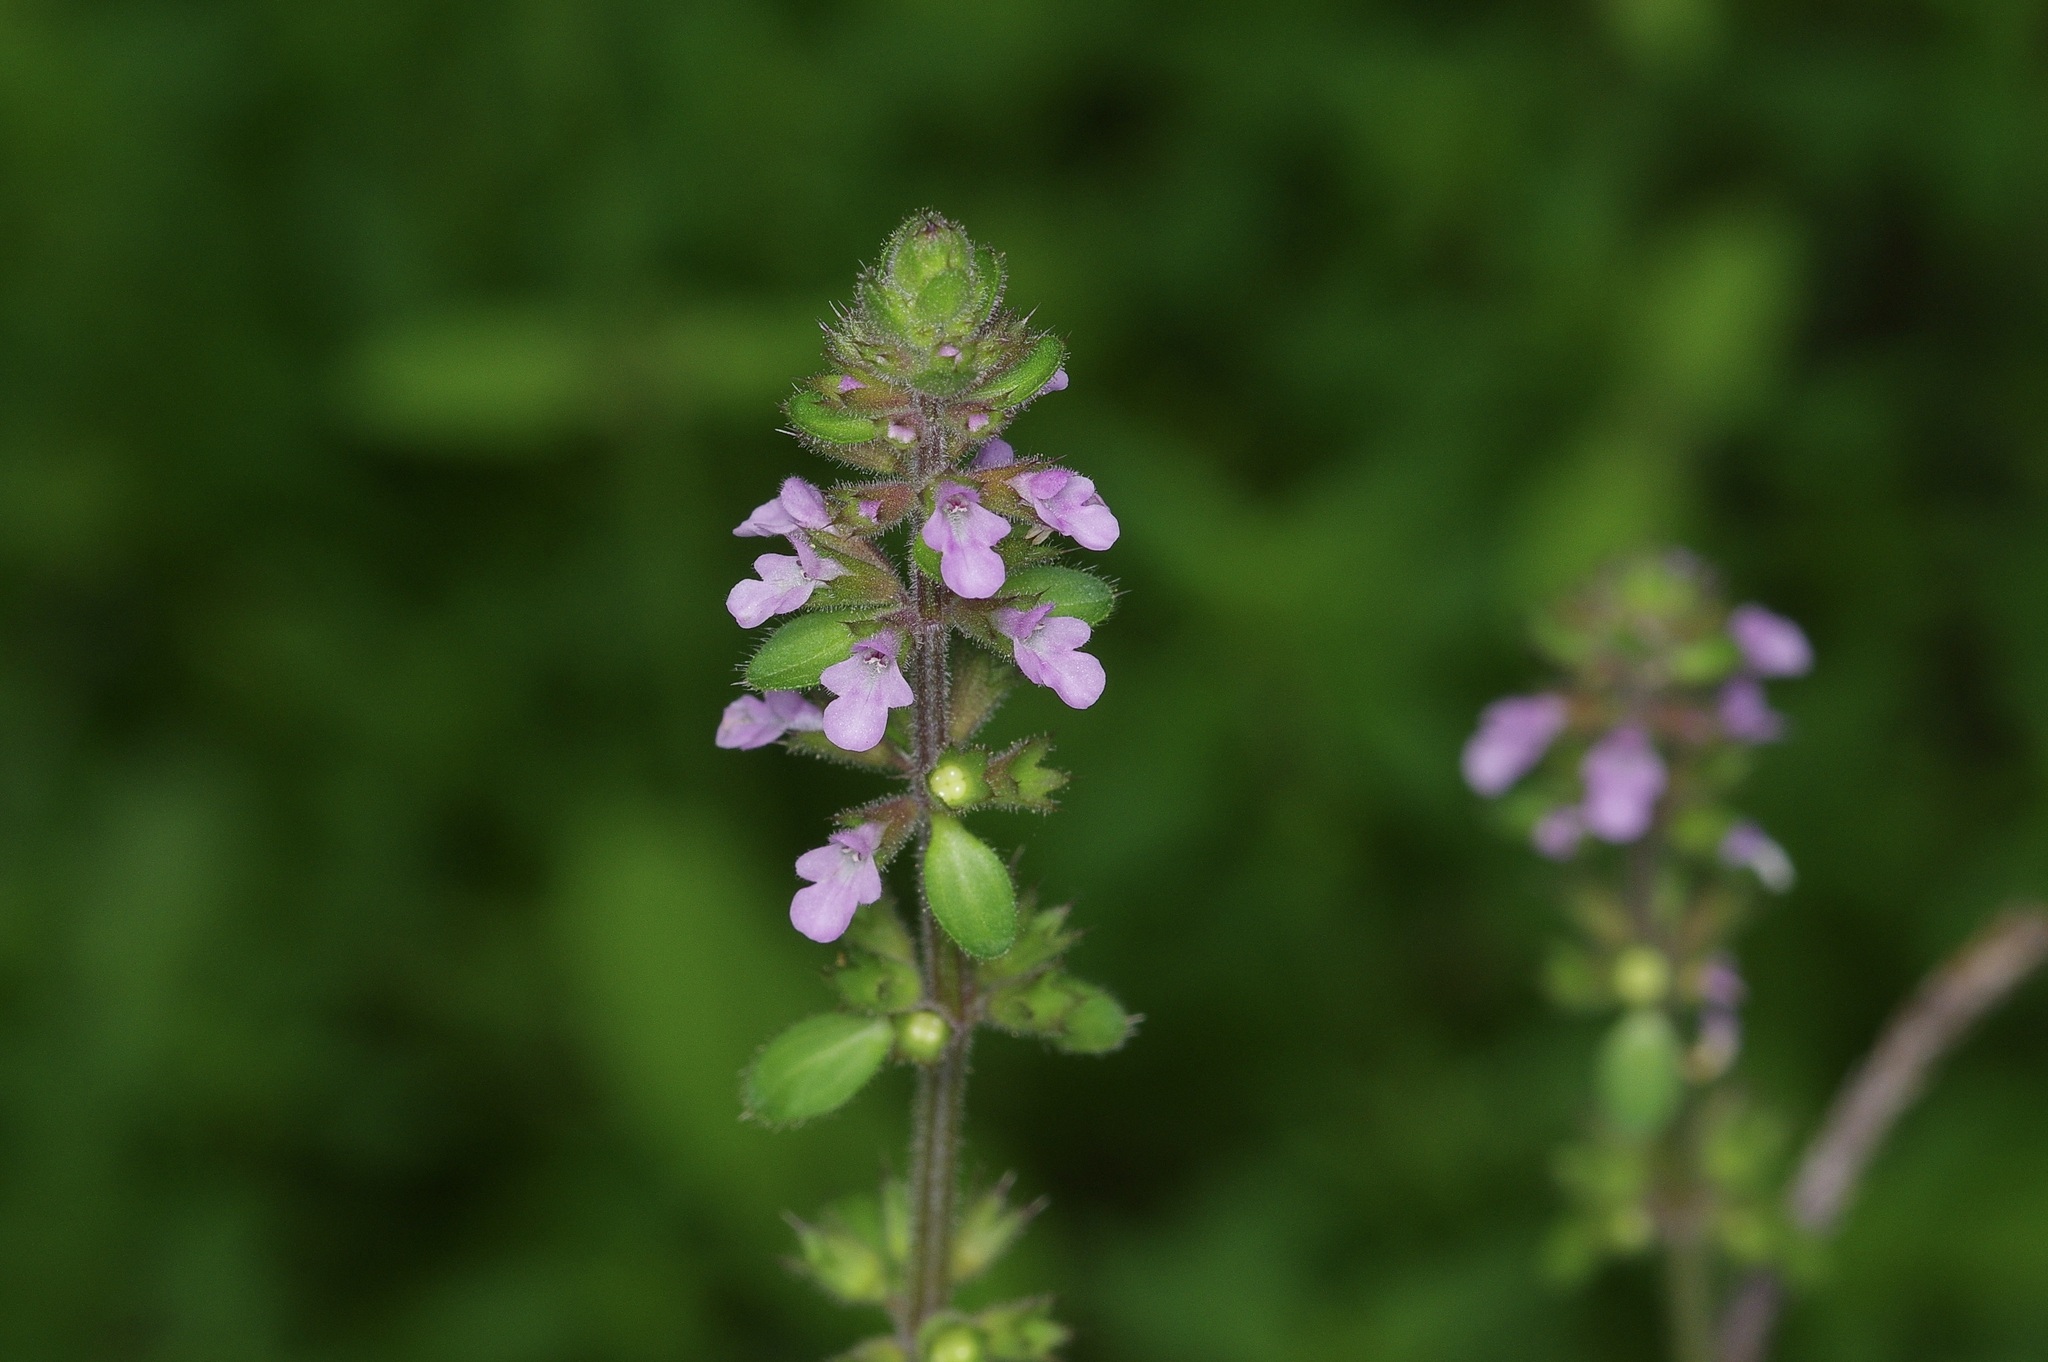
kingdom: Plantae
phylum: Tracheophyta
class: Magnoliopsida
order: Lamiales
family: Lamiaceae
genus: Stachys
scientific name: Stachys
